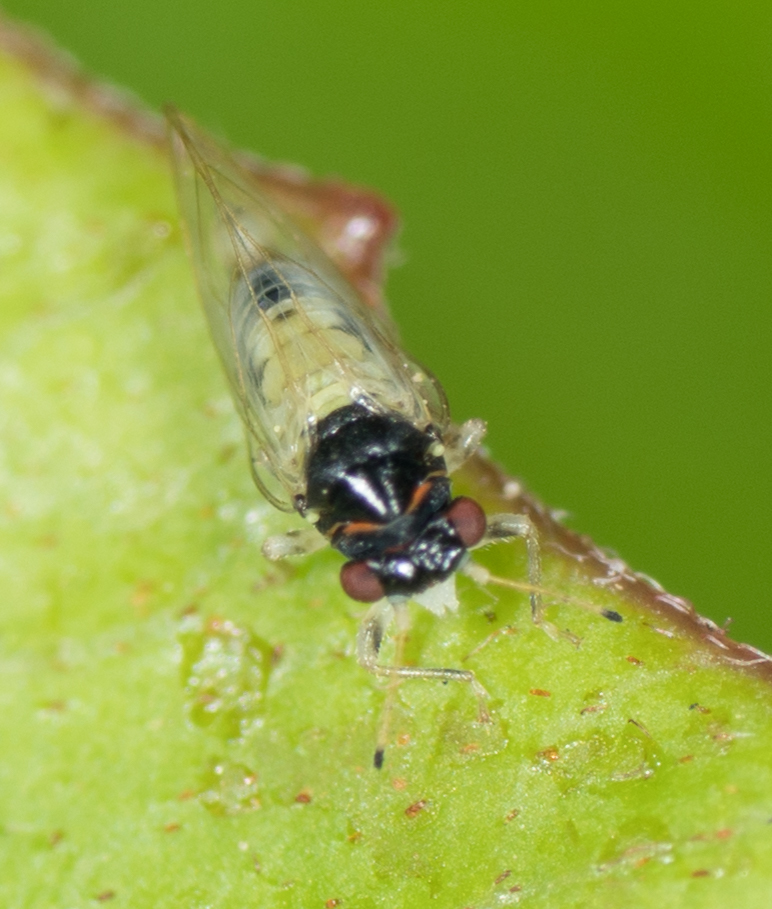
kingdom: Animalia
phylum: Arthropoda
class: Insecta
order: Hemiptera
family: Calophyidae
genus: Calophya
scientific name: Calophya californica
